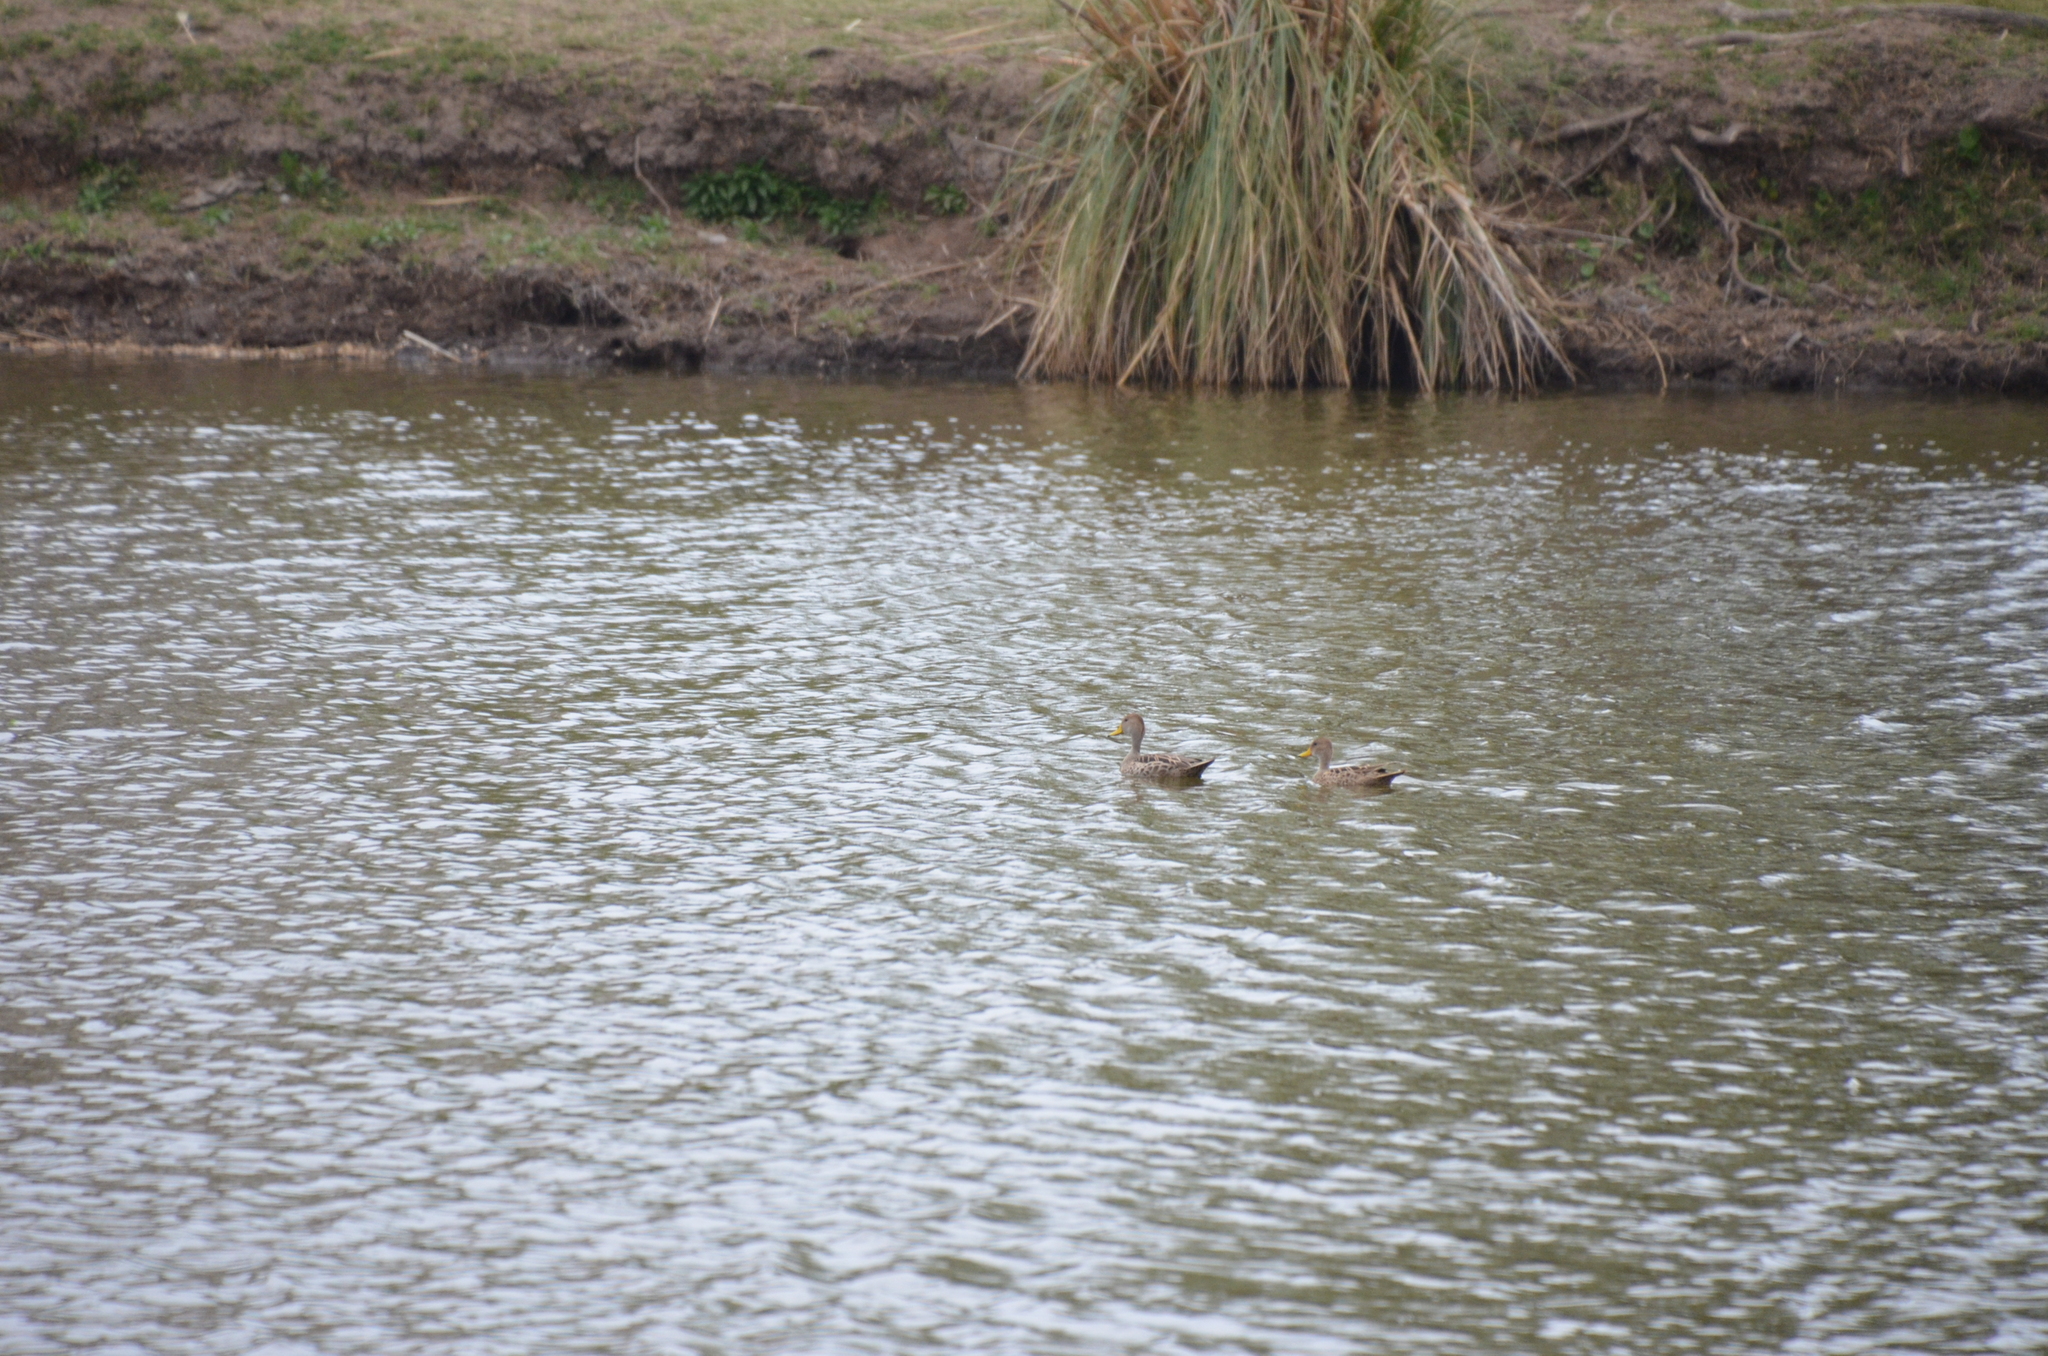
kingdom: Animalia
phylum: Chordata
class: Aves
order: Anseriformes
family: Anatidae
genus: Anas
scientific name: Anas georgica
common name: Yellow-billed pintail
